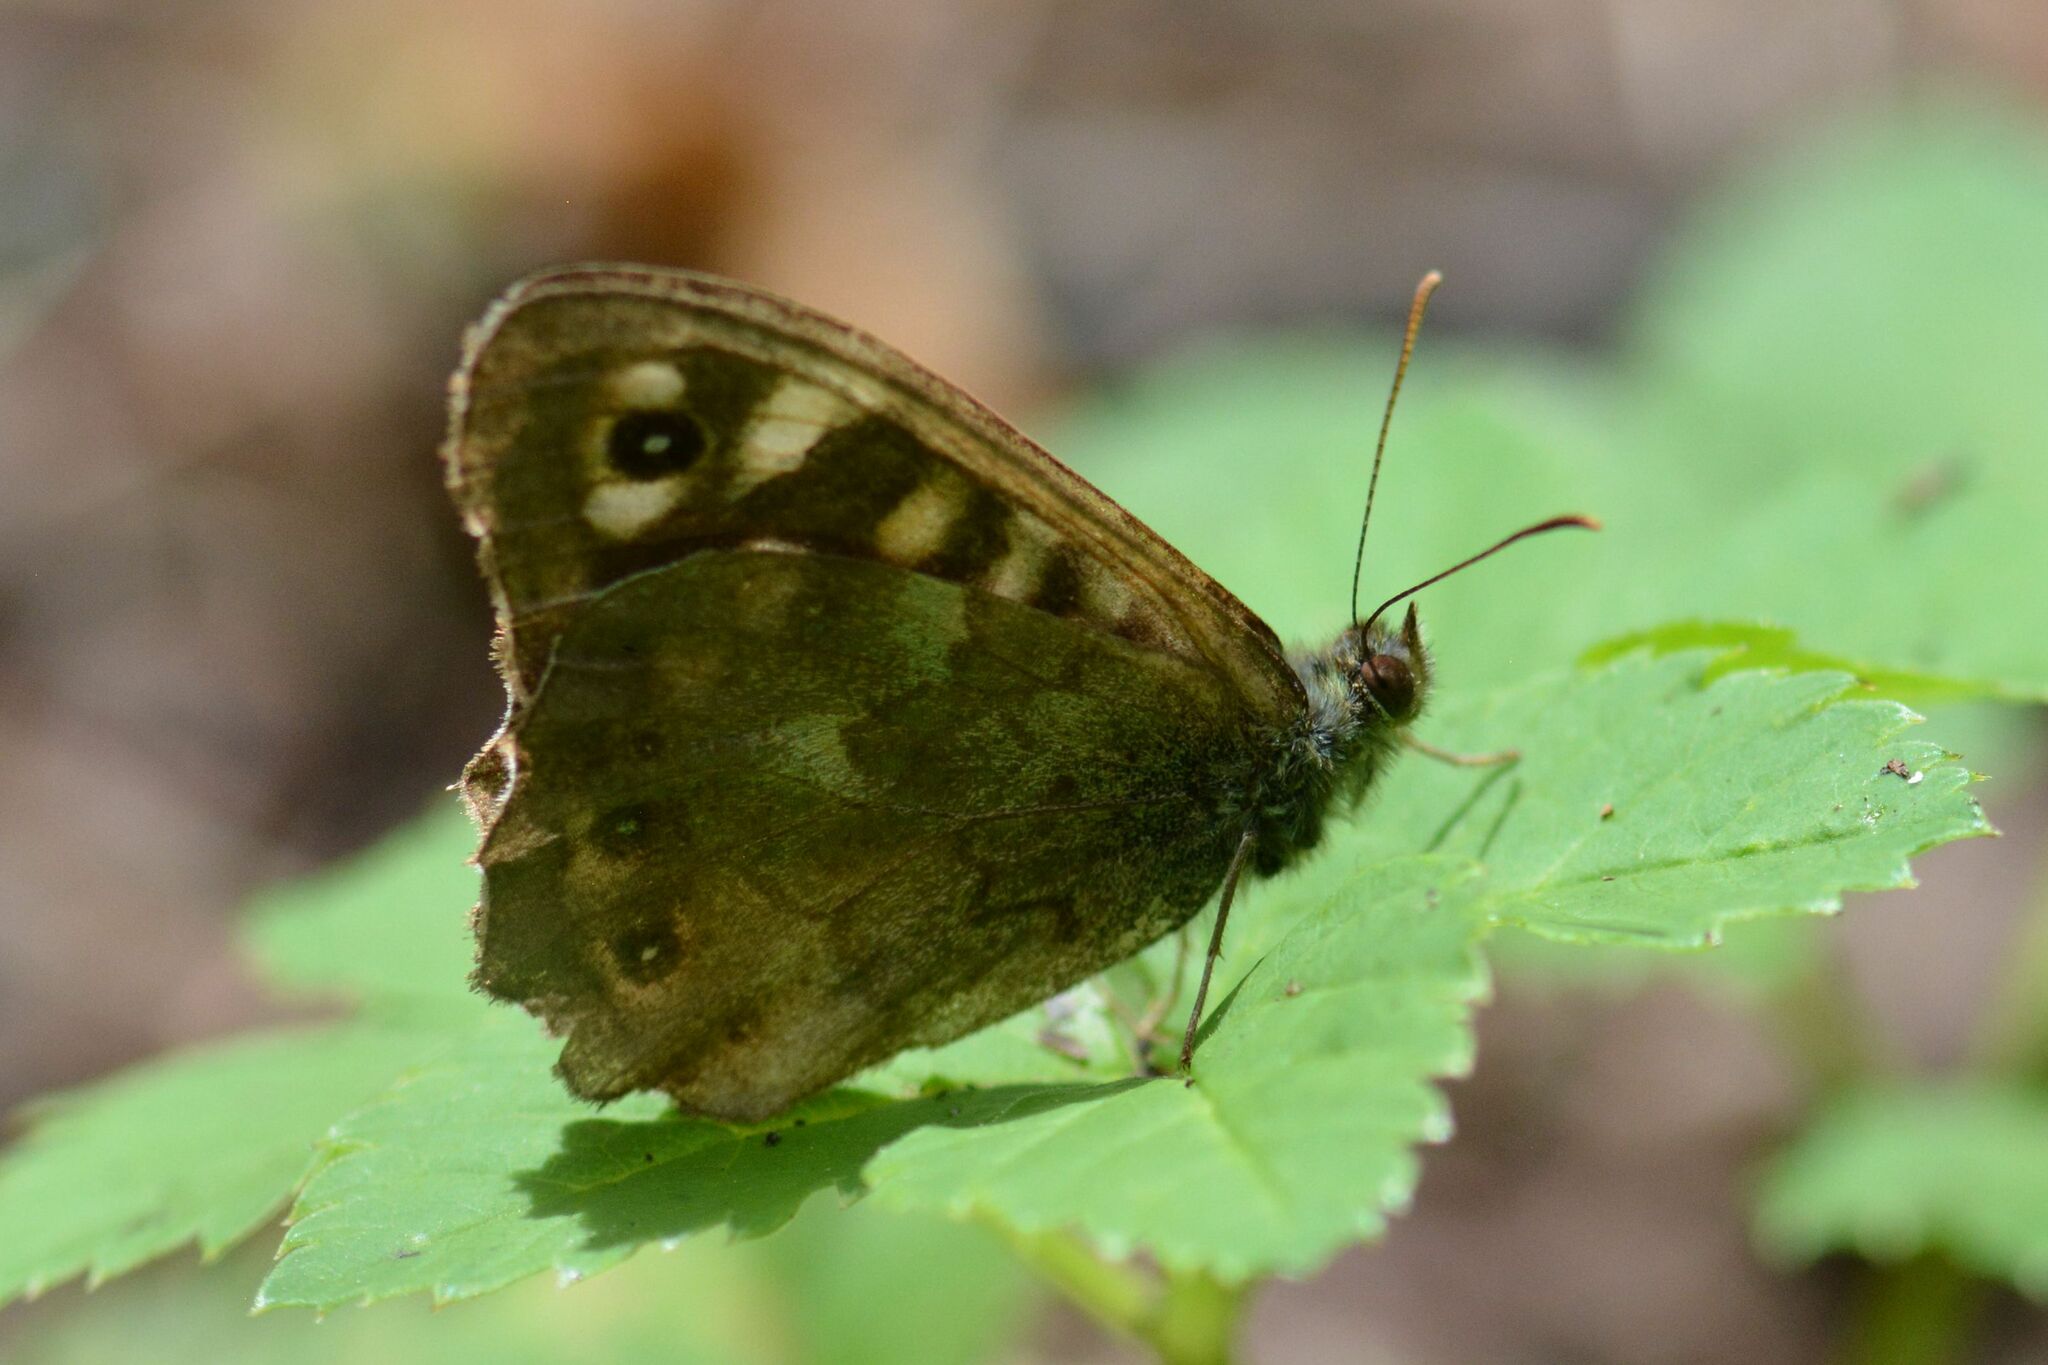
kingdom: Animalia
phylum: Arthropoda
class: Insecta
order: Lepidoptera
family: Nymphalidae
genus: Pararge
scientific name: Pararge aegeria
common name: Speckled wood
